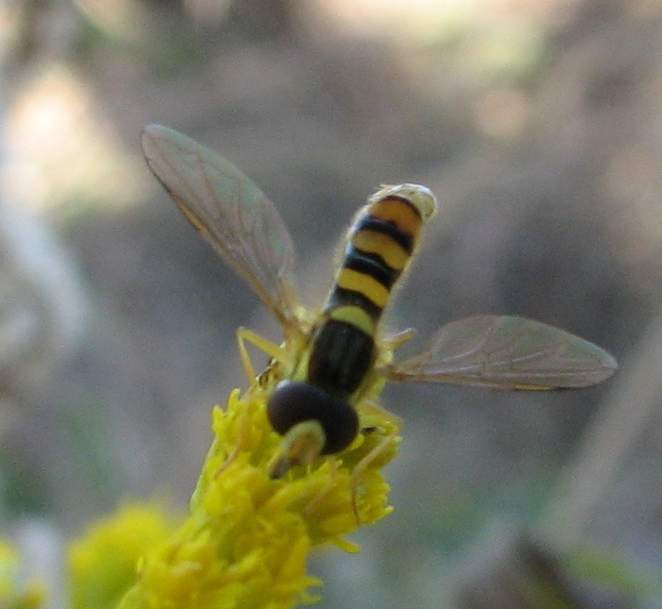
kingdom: Animalia
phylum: Arthropoda
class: Insecta
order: Diptera
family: Syrphidae
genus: Sphaerophoria
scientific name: Sphaerophoria
